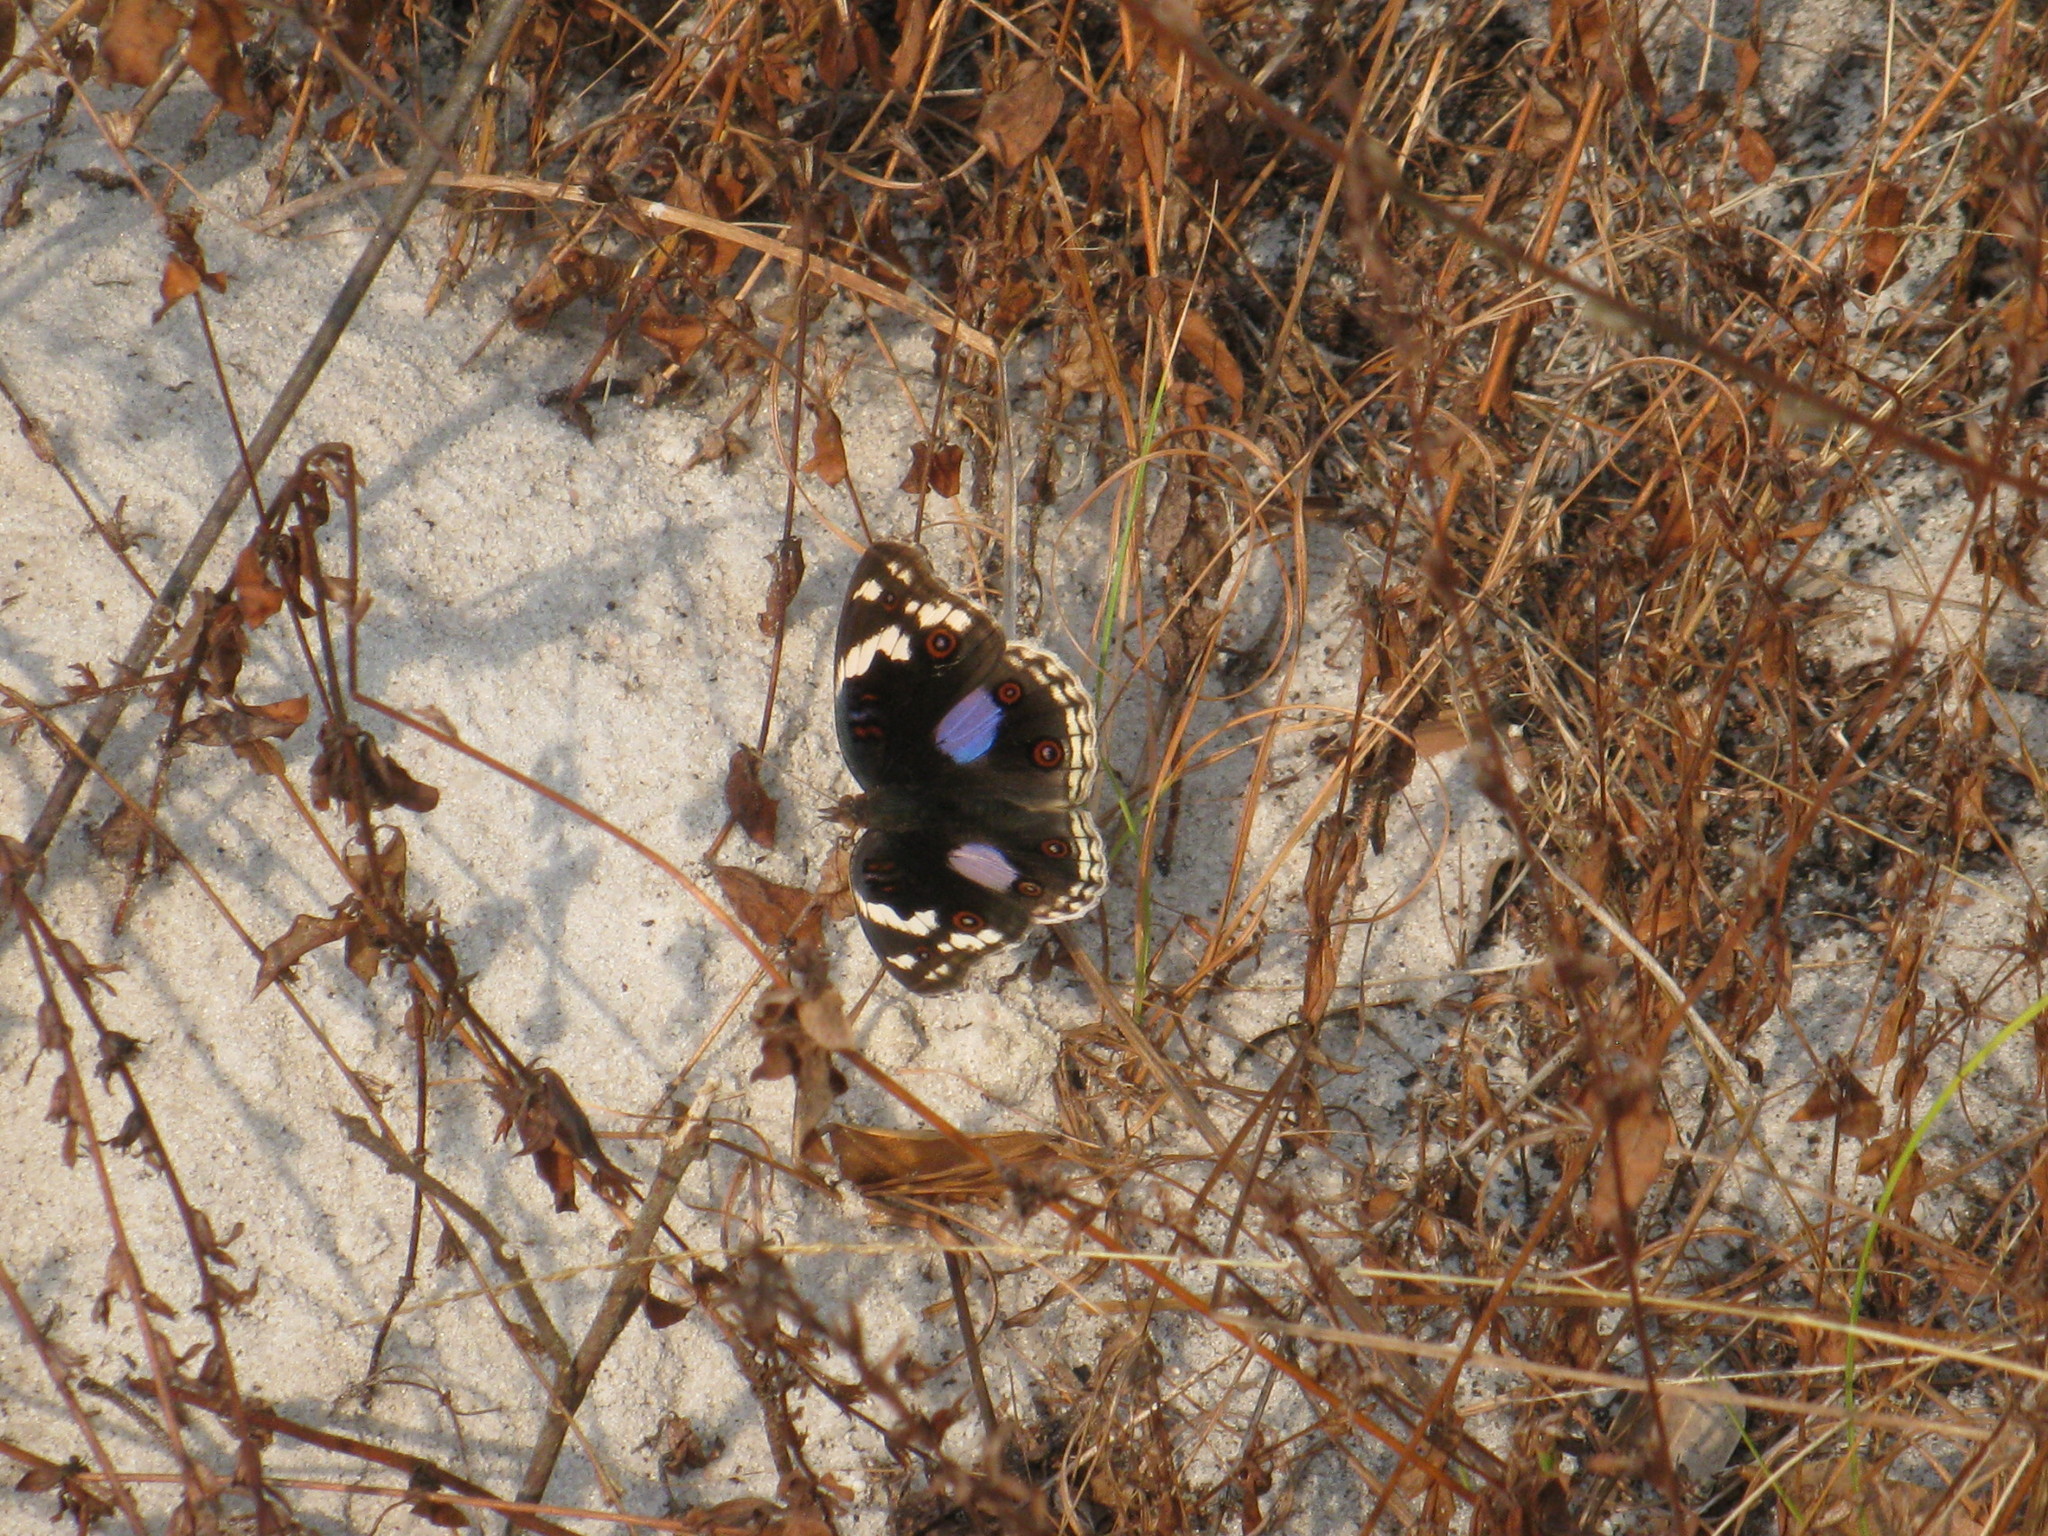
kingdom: Animalia
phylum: Arthropoda
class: Insecta
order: Lepidoptera
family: Nymphalidae
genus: Junonia
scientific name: Junonia oenone
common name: Dark blue pansy
